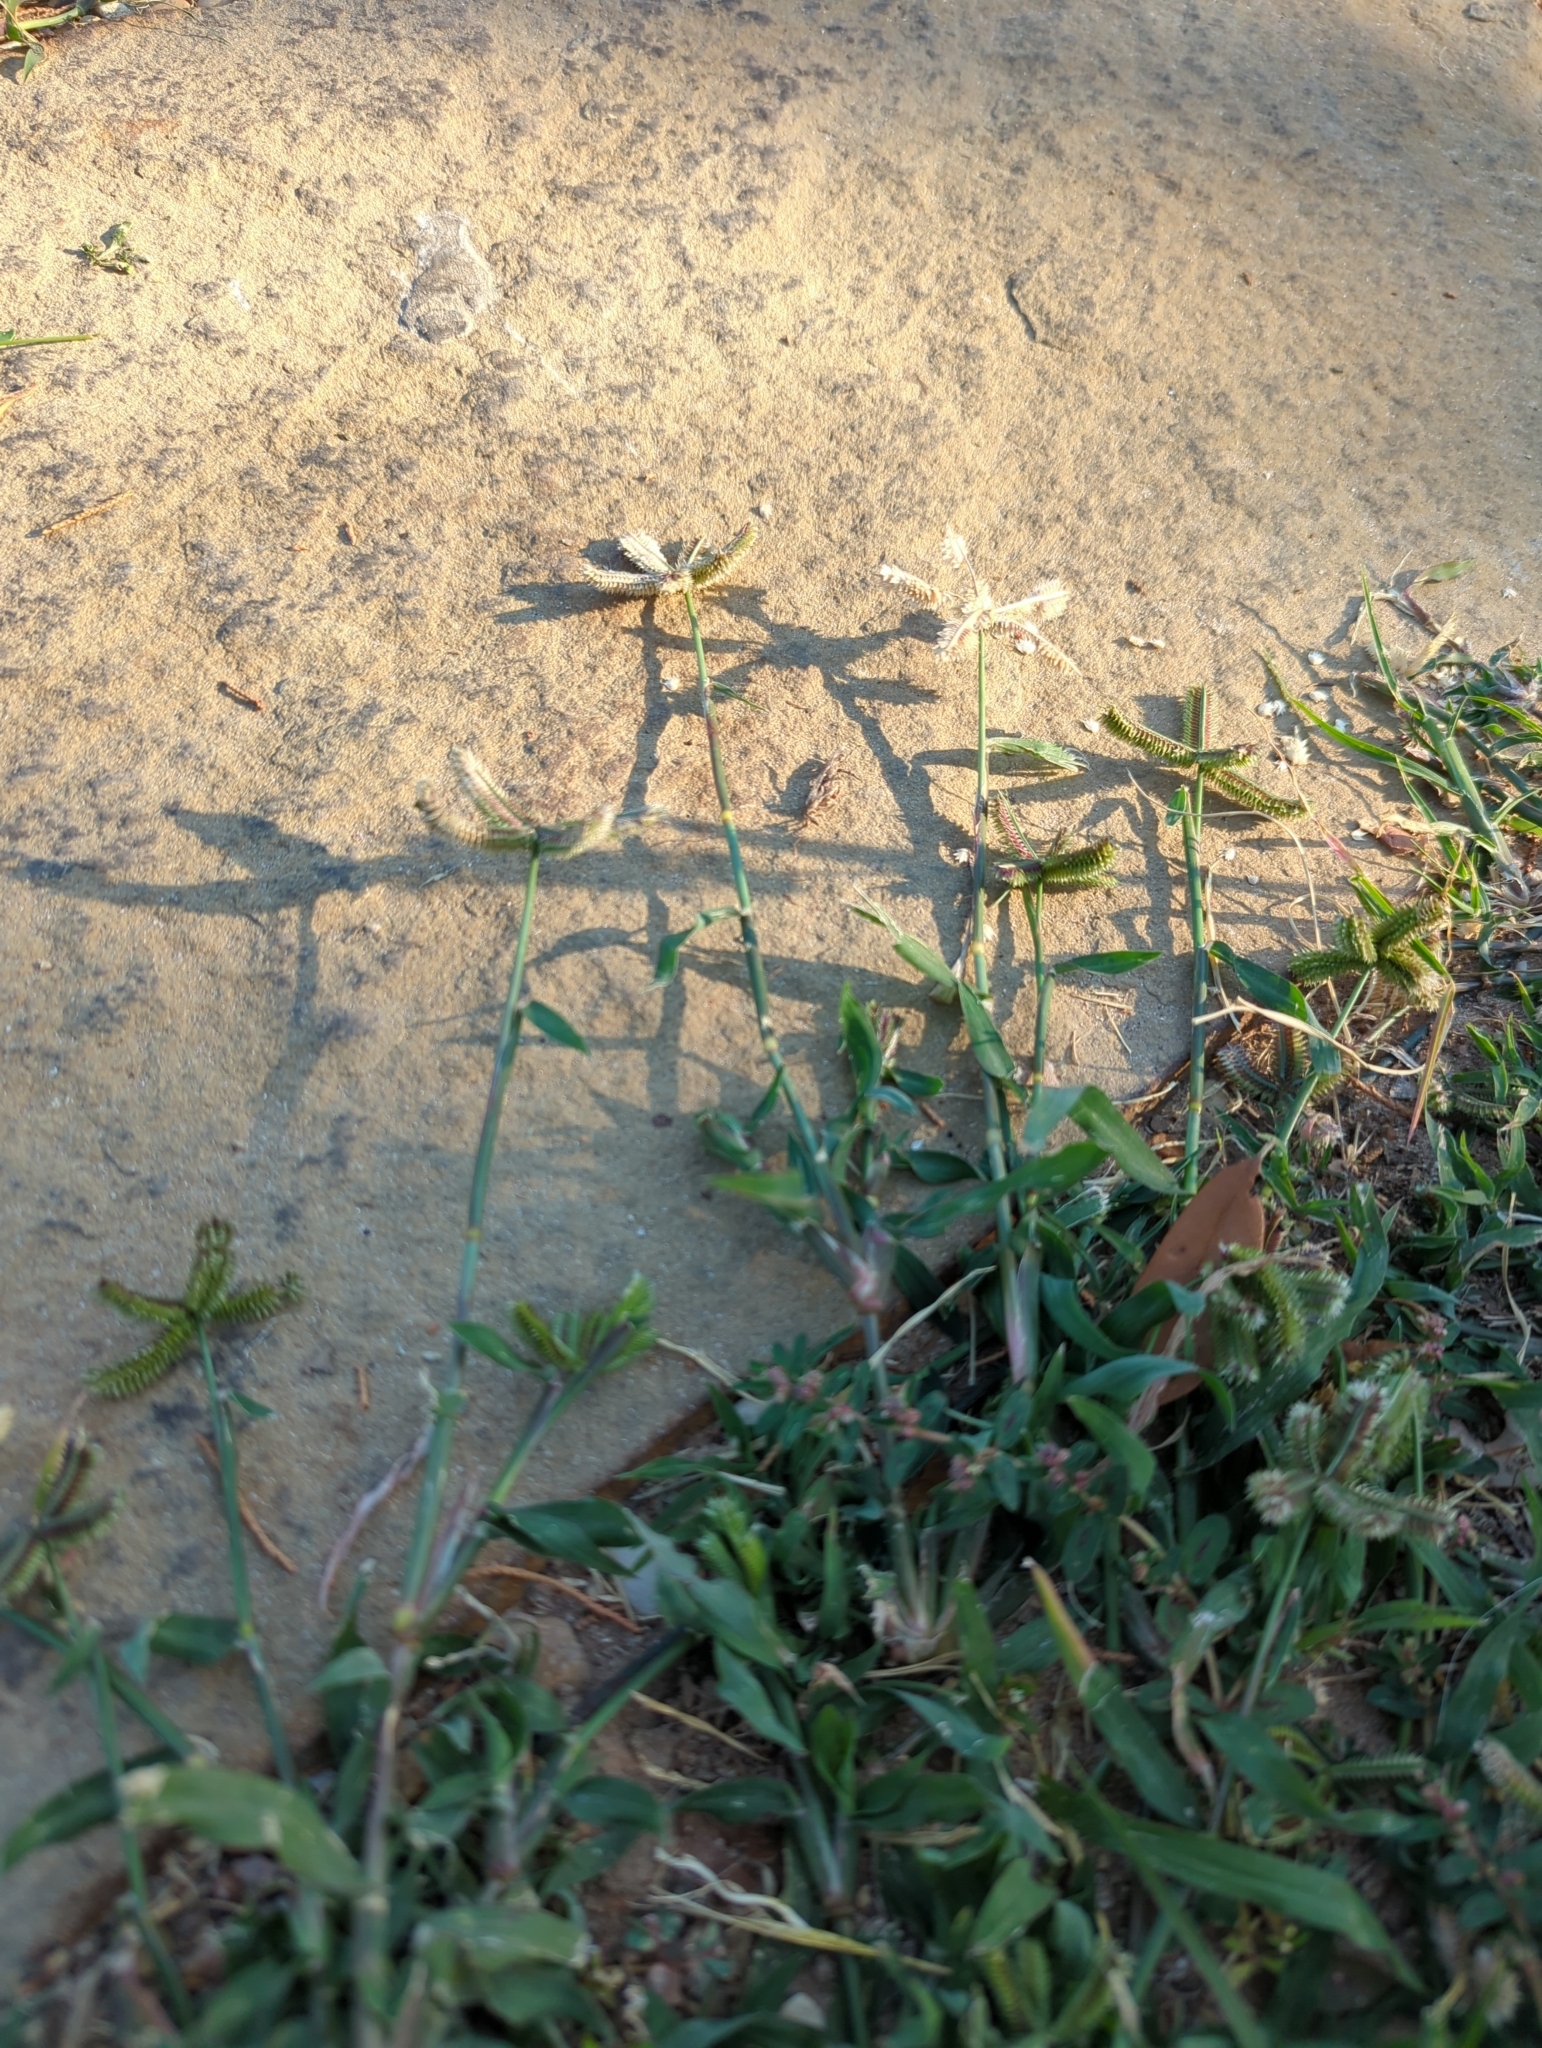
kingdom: Plantae
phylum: Tracheophyta
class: Liliopsida
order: Poales
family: Poaceae
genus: Dactyloctenium
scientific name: Dactyloctenium aegyptium
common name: Egyptian grass
